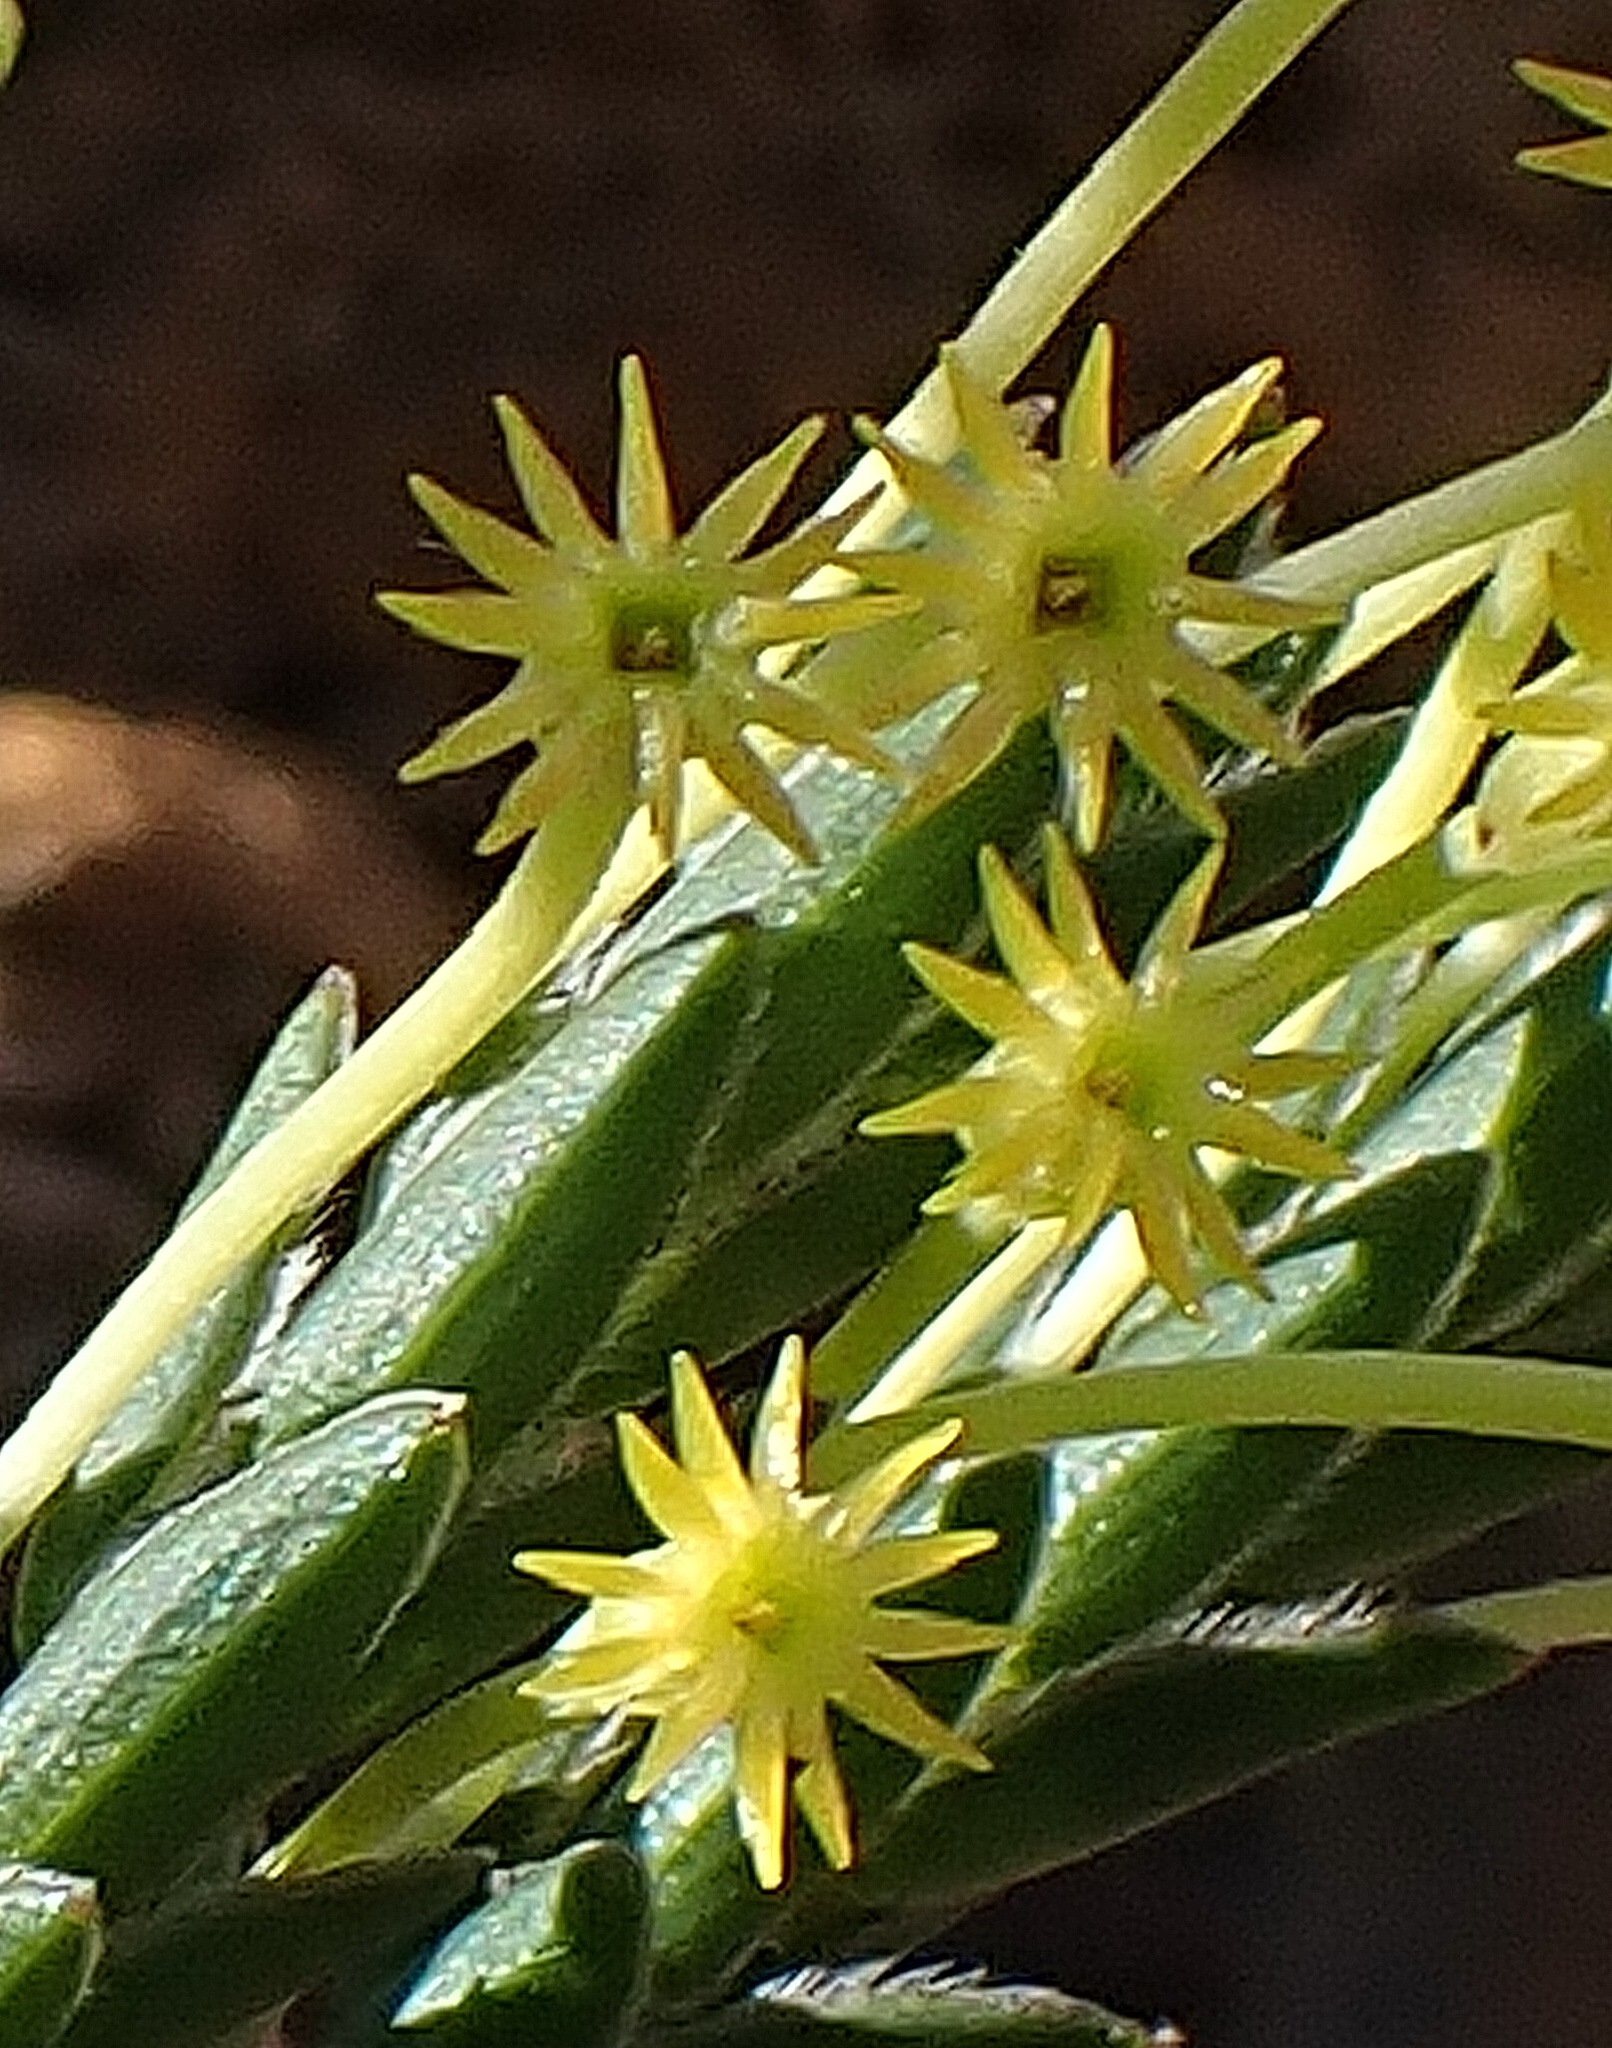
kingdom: Plantae
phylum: Tracheophyta
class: Magnoliopsida
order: Malvales
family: Thymelaeaceae
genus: Struthiola
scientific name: Struthiola garciana
